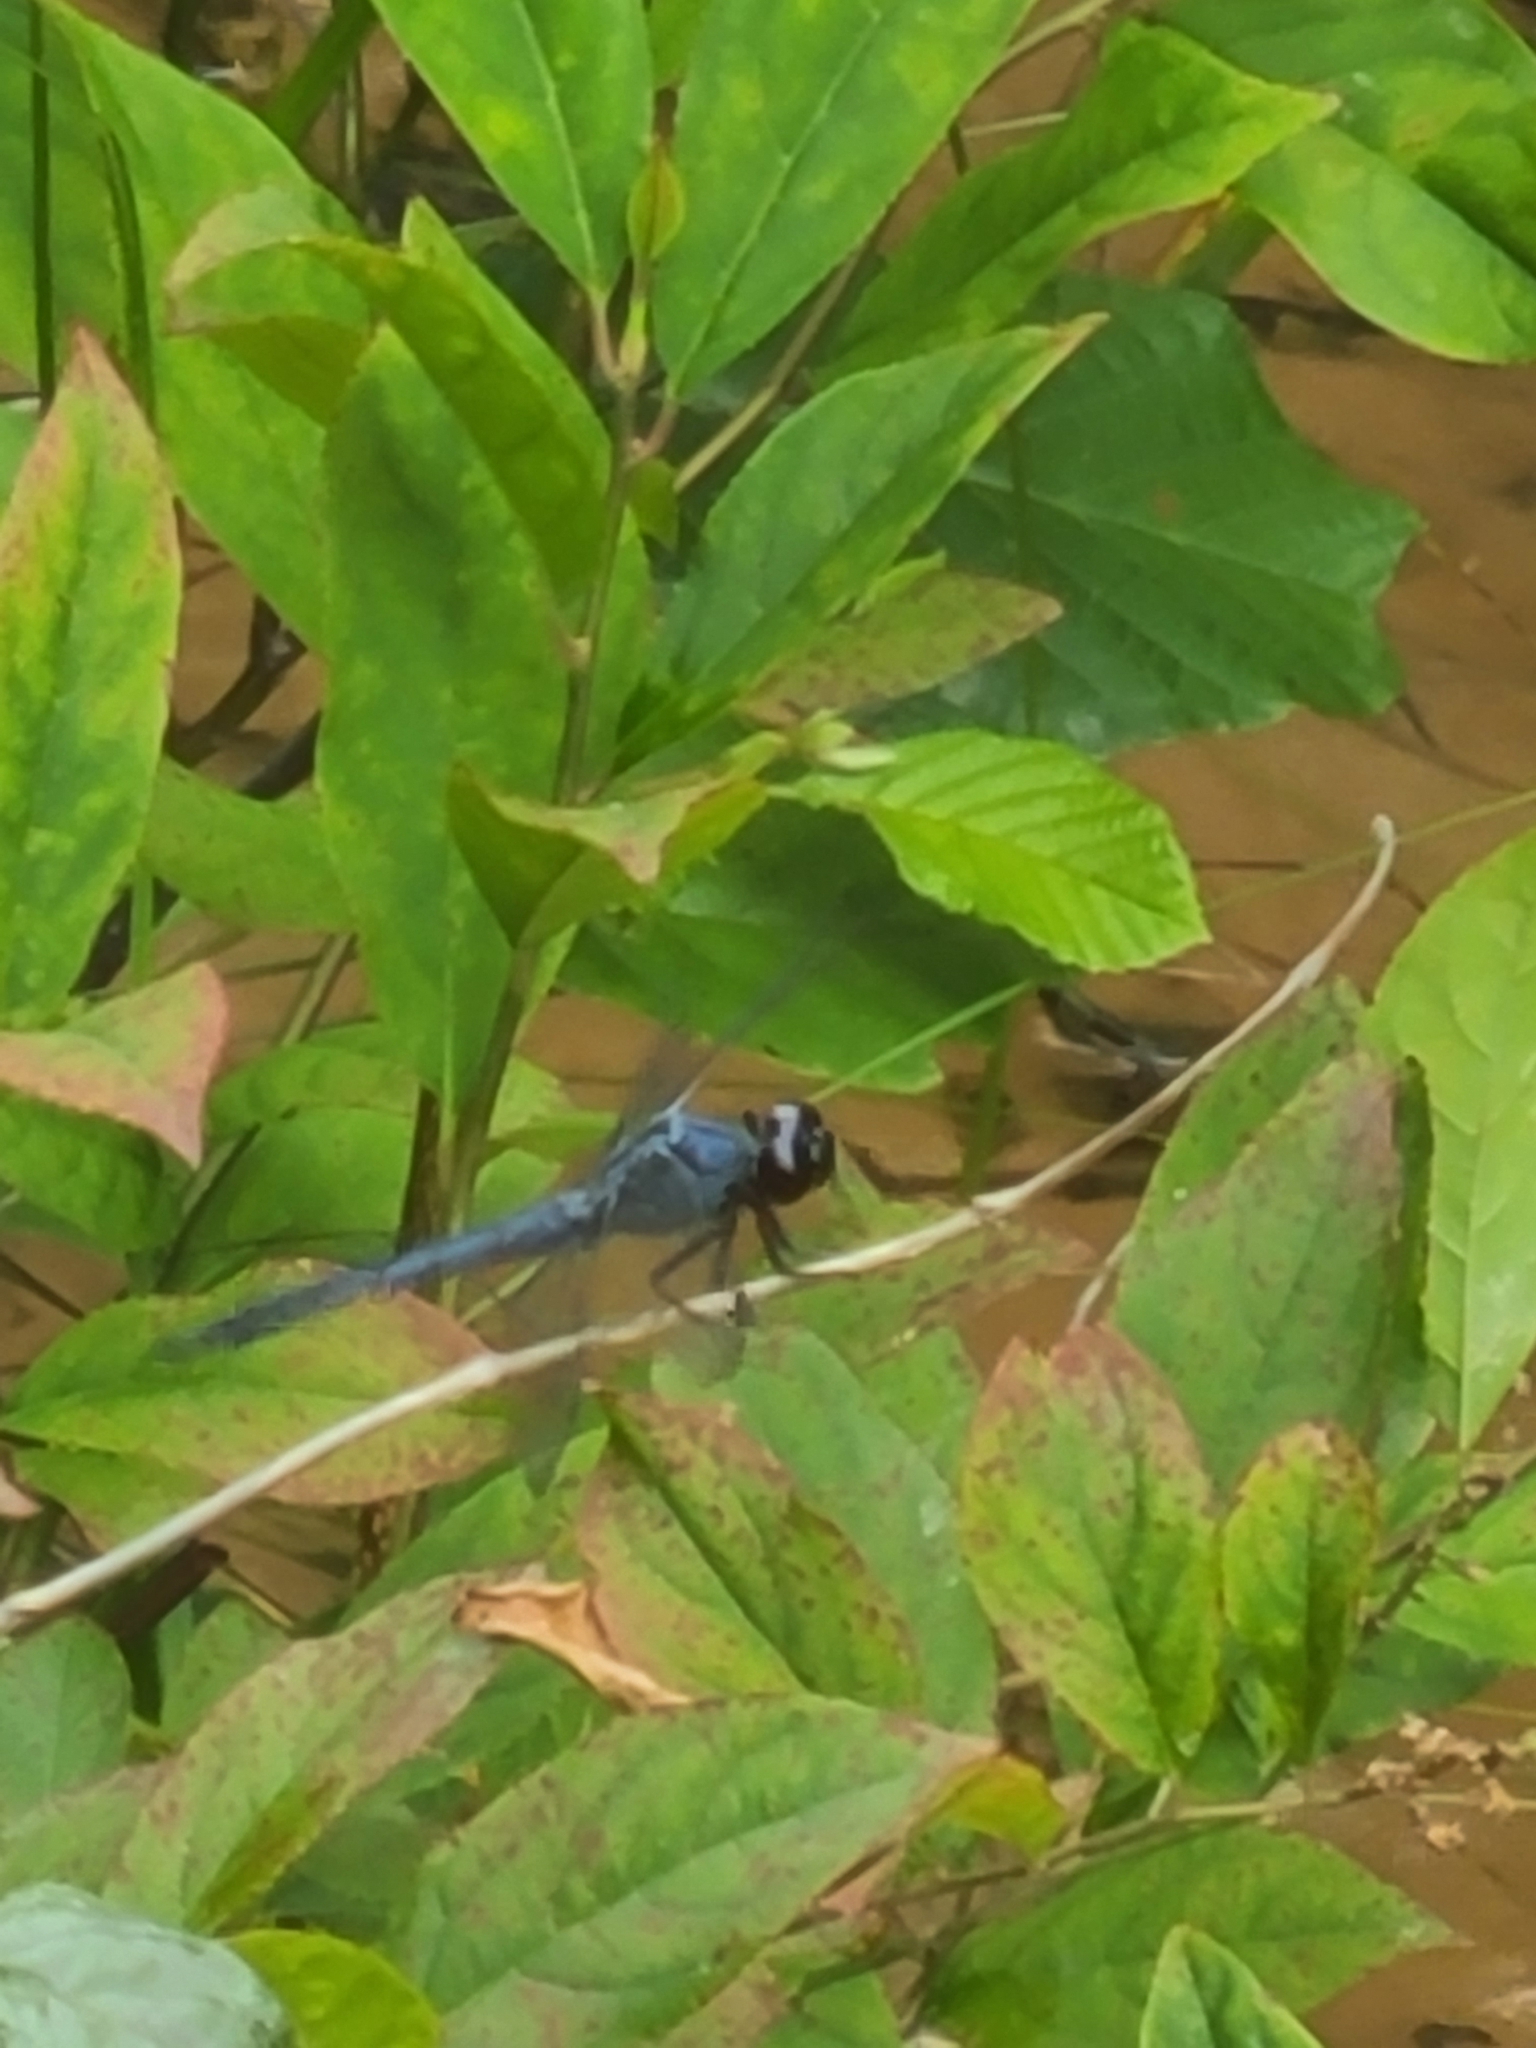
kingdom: Animalia
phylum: Arthropoda
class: Insecta
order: Odonata
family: Libellulidae
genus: Libellula
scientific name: Libellula incesta
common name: Slaty skimmer
